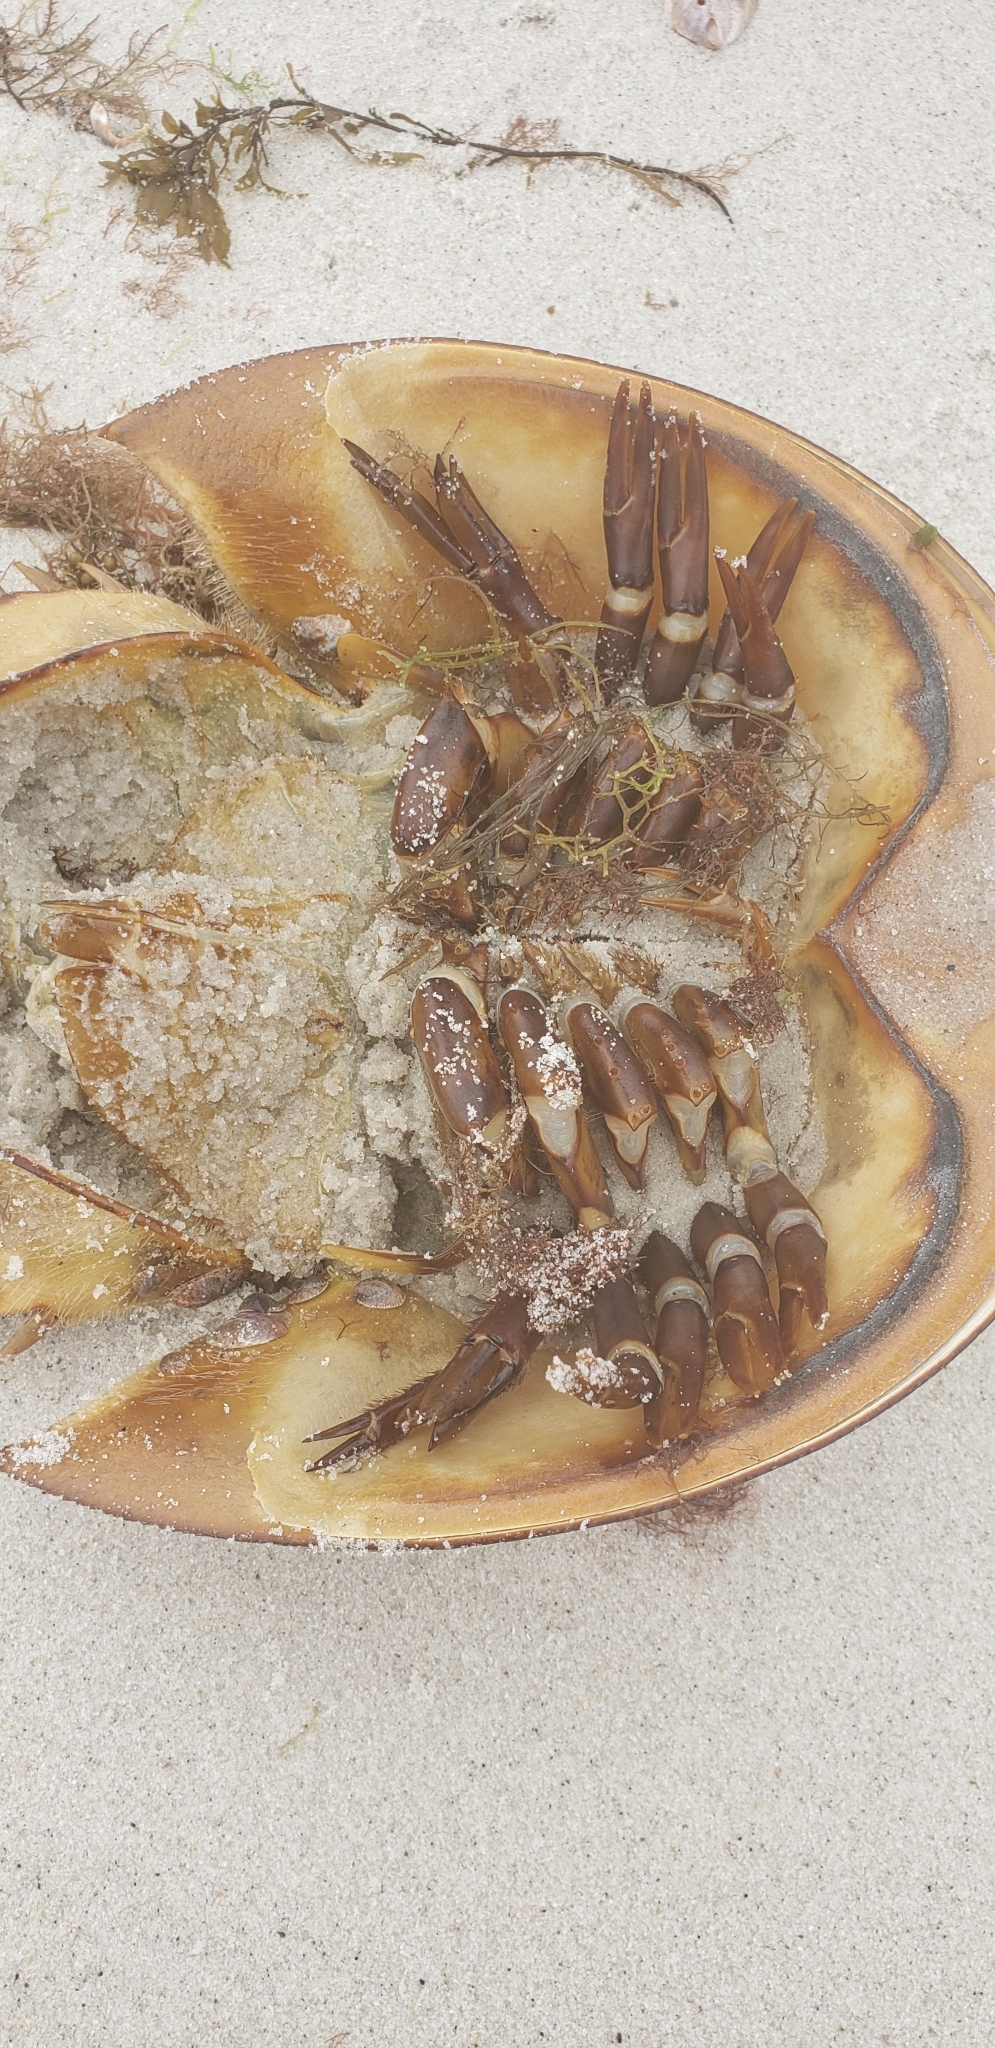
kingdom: Animalia
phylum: Arthropoda
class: Merostomata
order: Xiphosurida
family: Limulidae
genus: Limulus
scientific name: Limulus polyphemus
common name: Horseshoe crab
